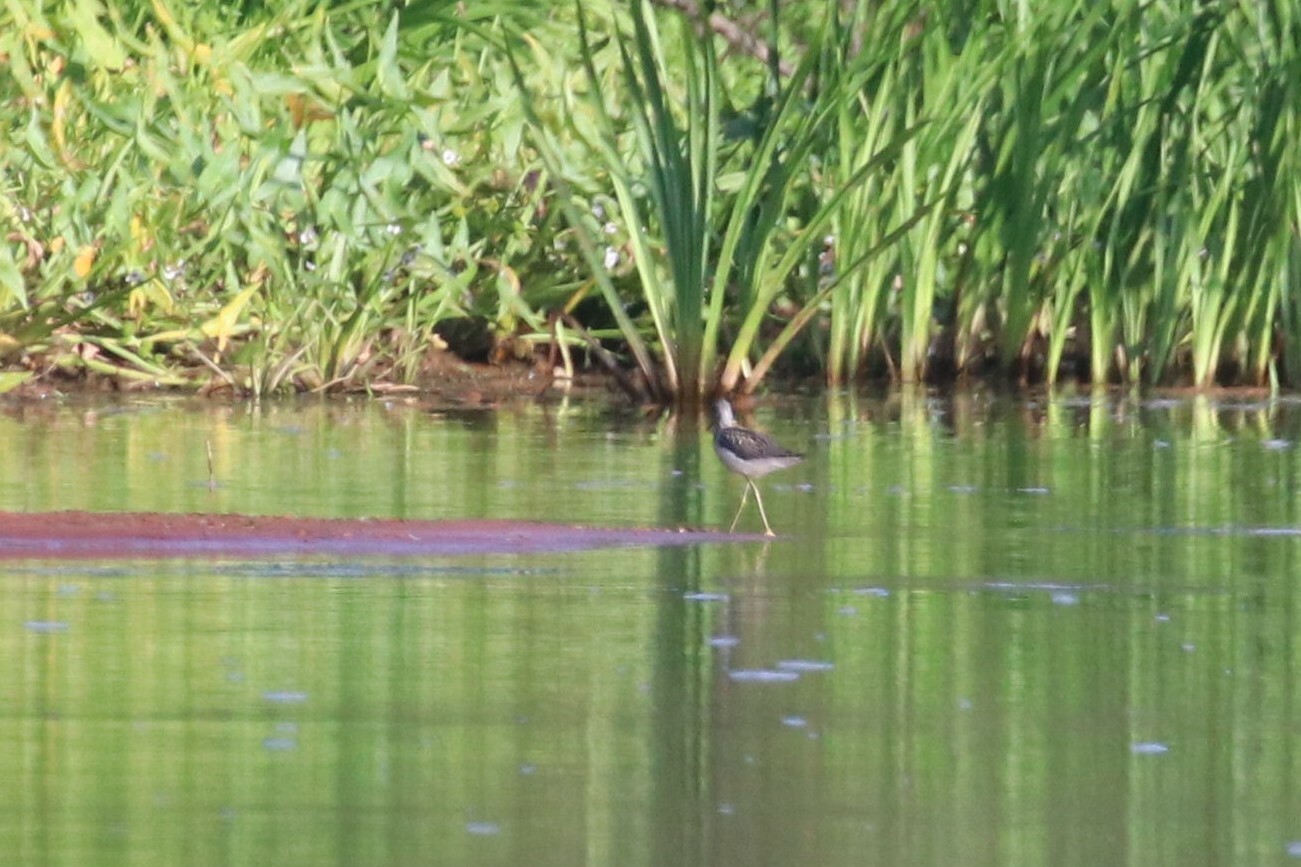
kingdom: Animalia
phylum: Chordata
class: Aves
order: Charadriiformes
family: Scolopacidae
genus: Tringa
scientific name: Tringa nebularia
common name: Common greenshank
